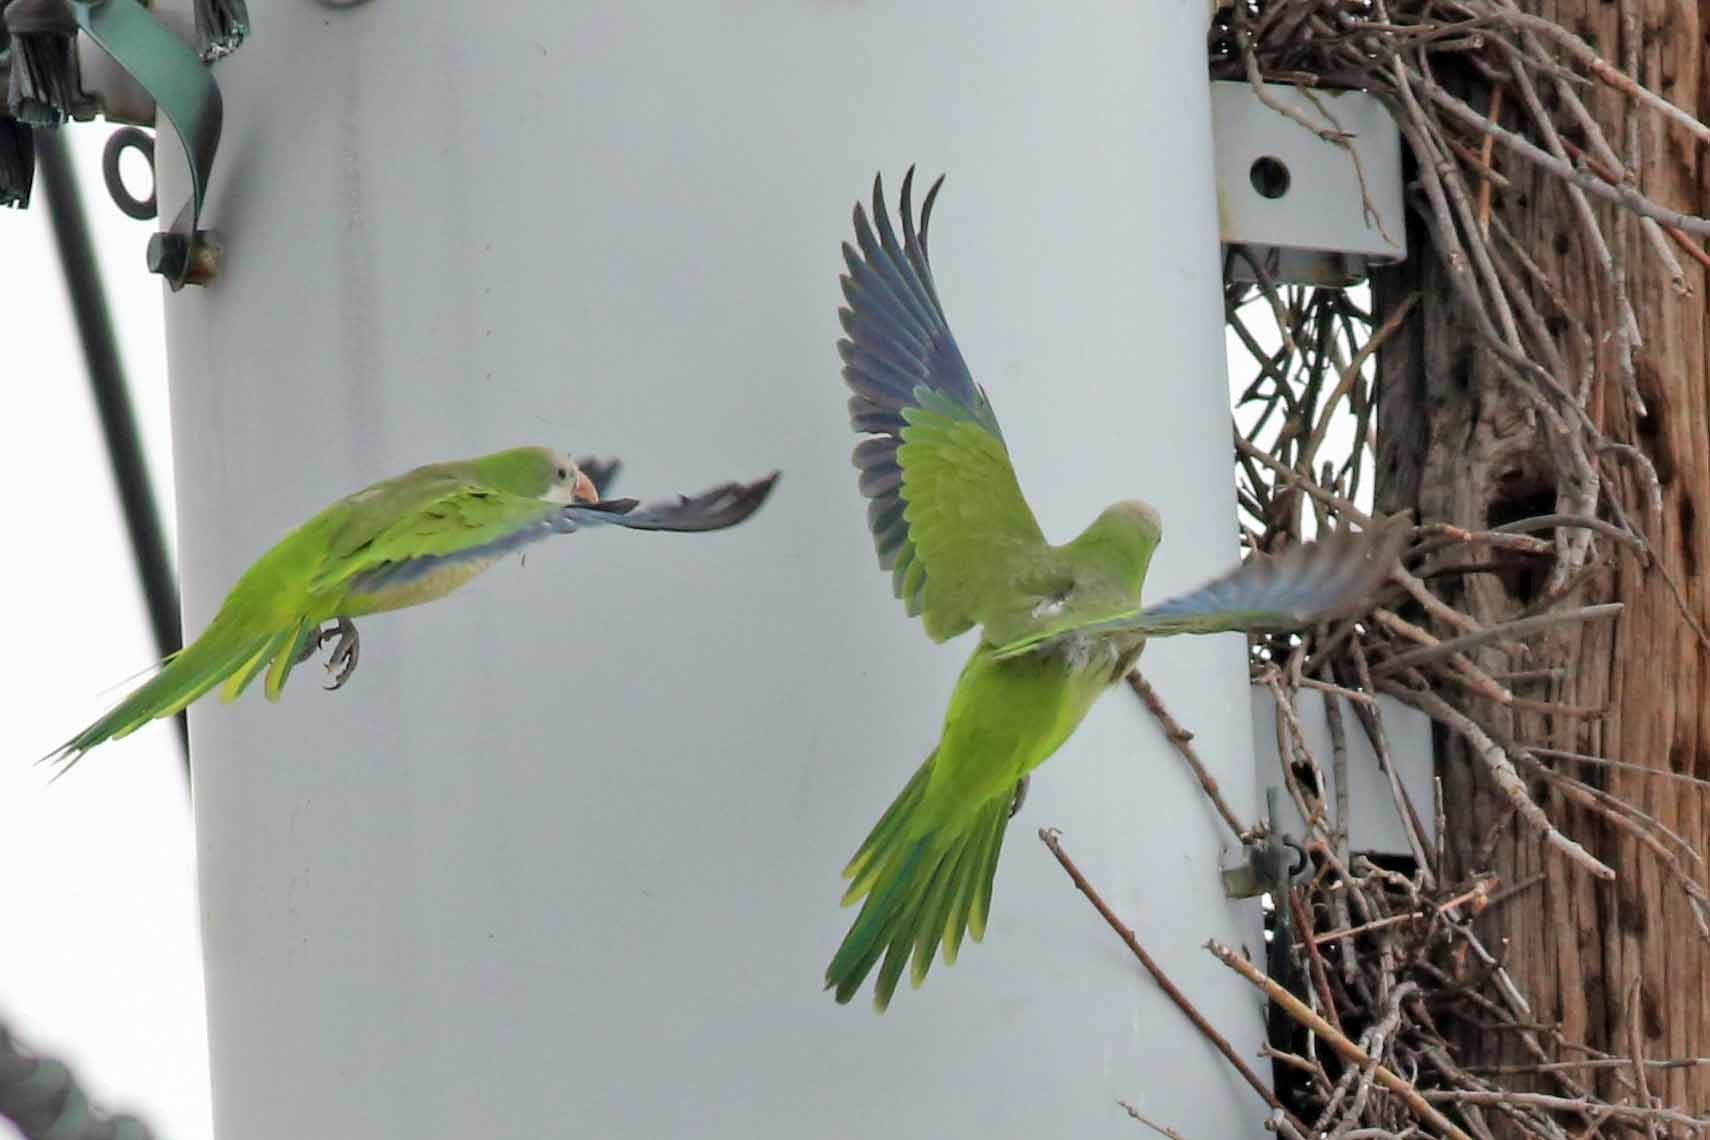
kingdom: Animalia
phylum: Chordata
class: Aves
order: Psittaciformes
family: Psittacidae
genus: Myiopsitta
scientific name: Myiopsitta monachus
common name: Monk parakeet
